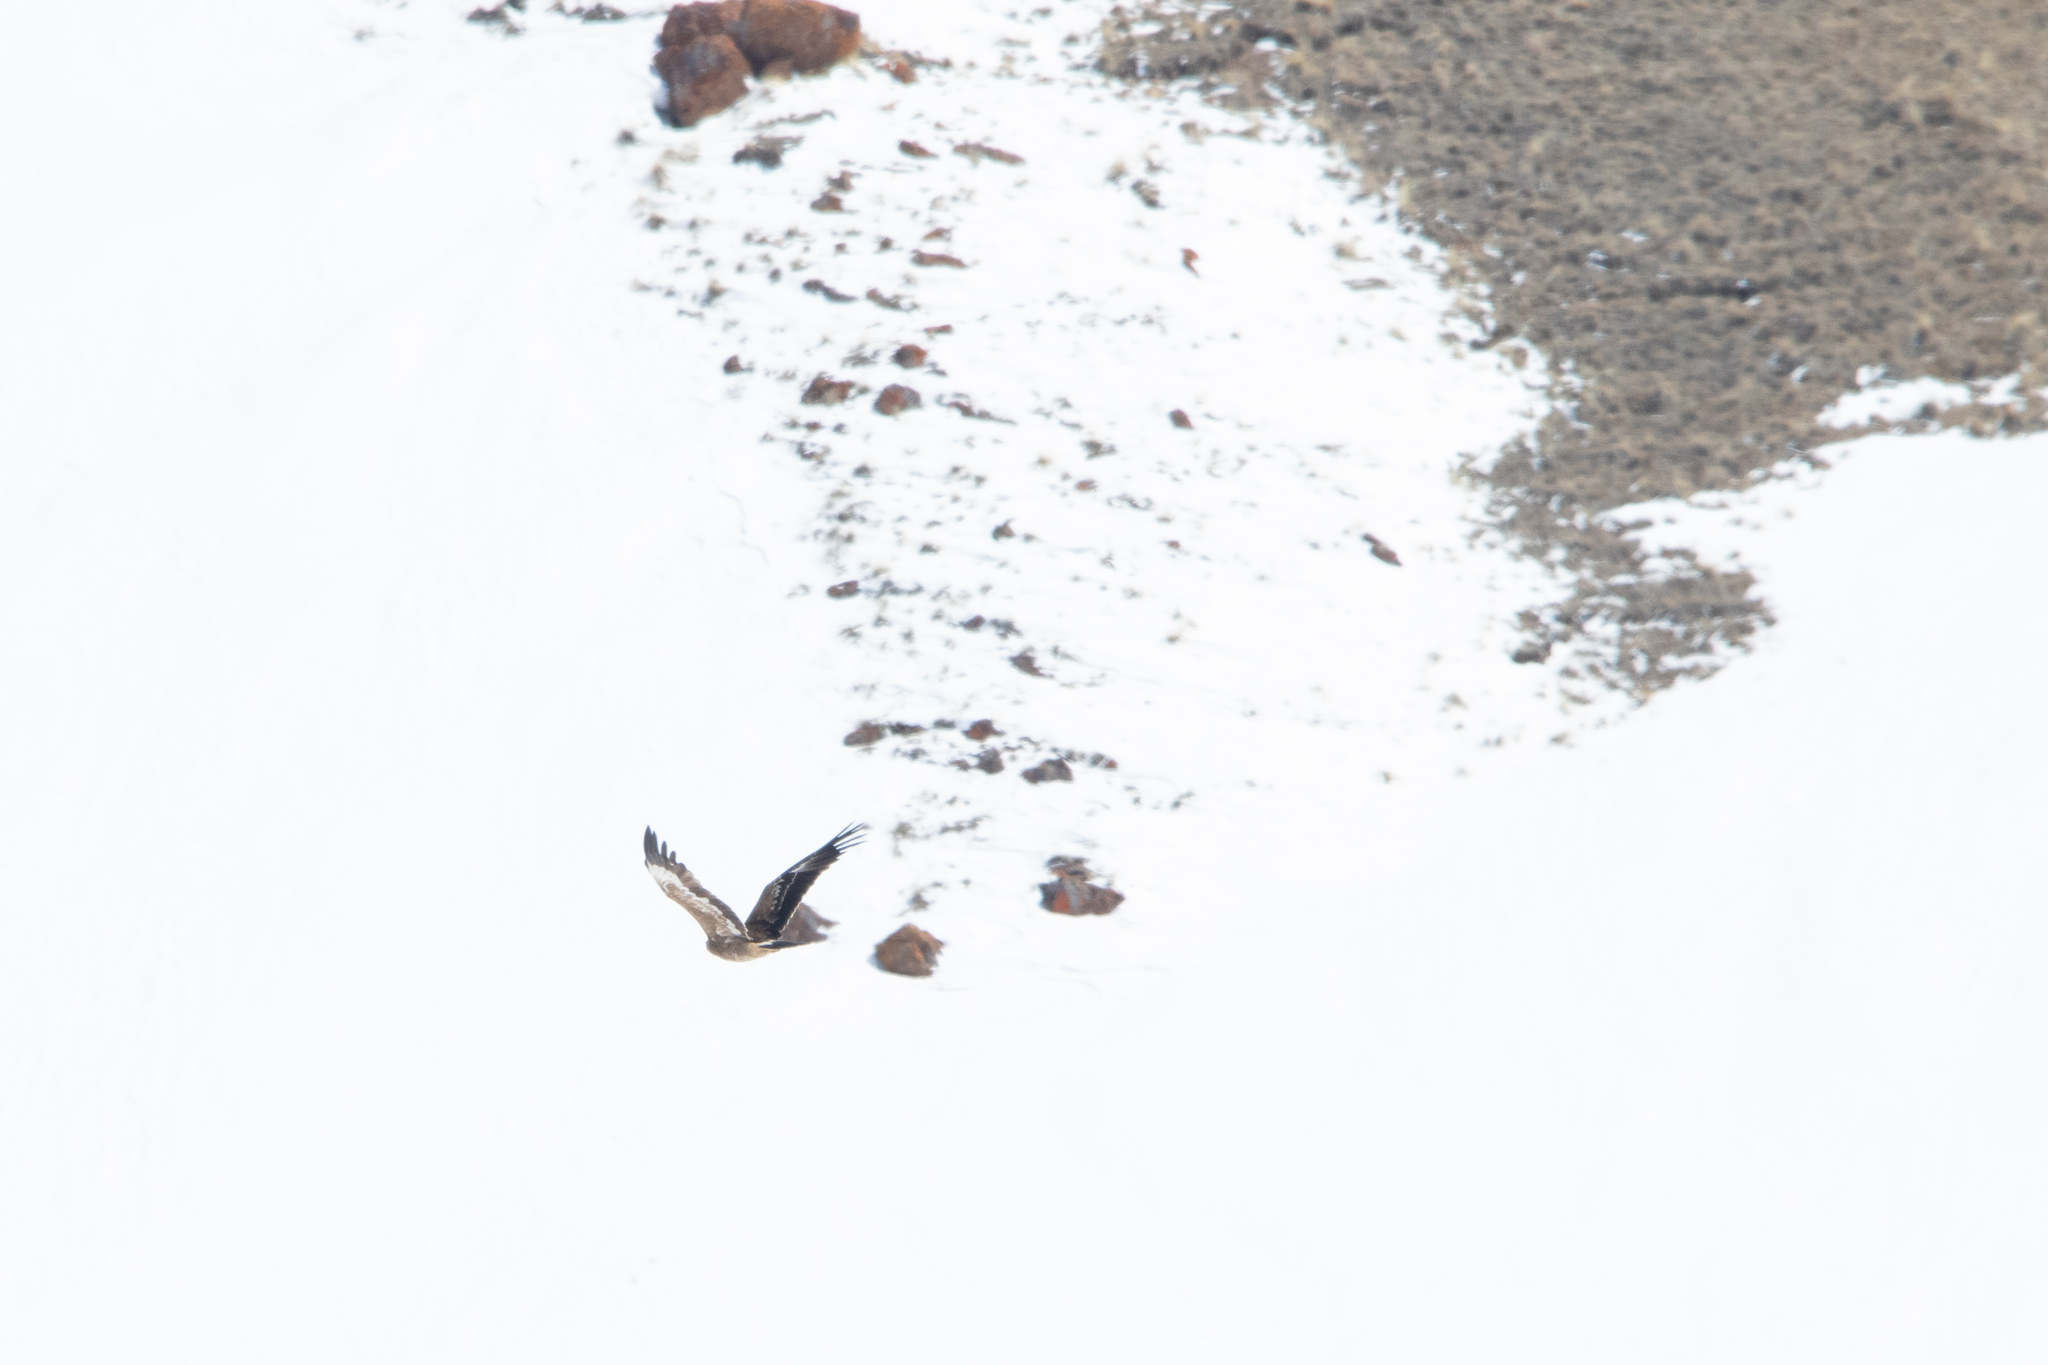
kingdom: Animalia
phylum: Chordata
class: Aves
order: Accipitriformes
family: Accipitridae
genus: Buteo
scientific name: Buteo hemilasius
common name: Upland buzzard
